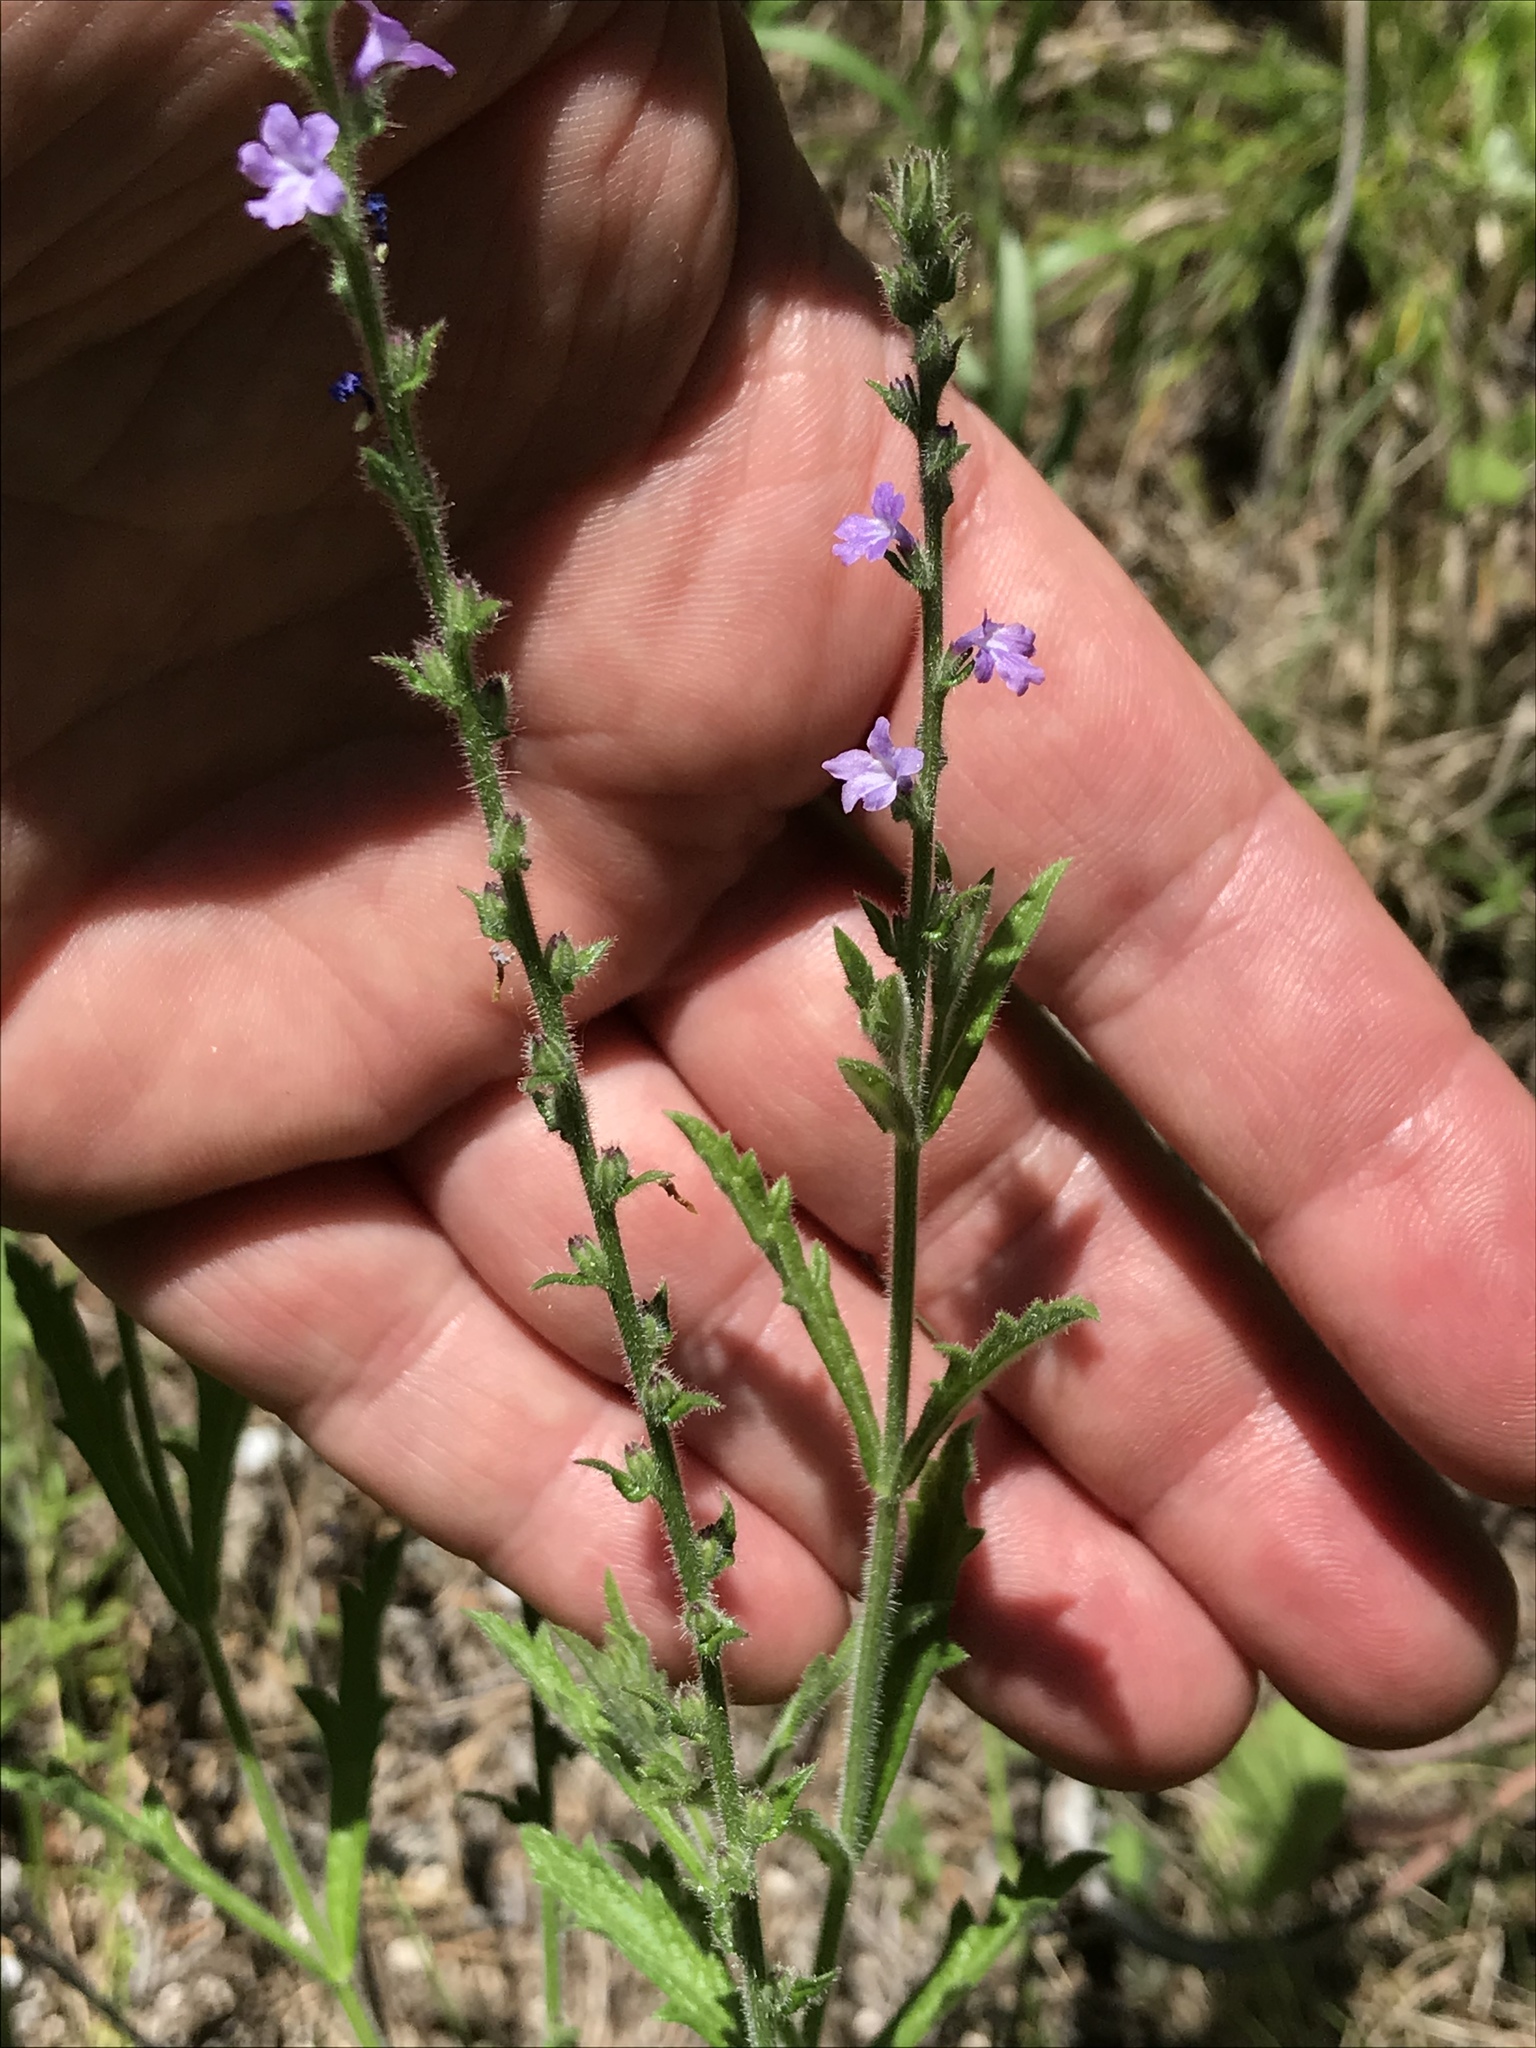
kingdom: Plantae
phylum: Tracheophyta
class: Magnoliopsida
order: Lamiales
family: Verbenaceae
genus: Verbena
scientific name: Verbena halei
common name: Texas vervain
